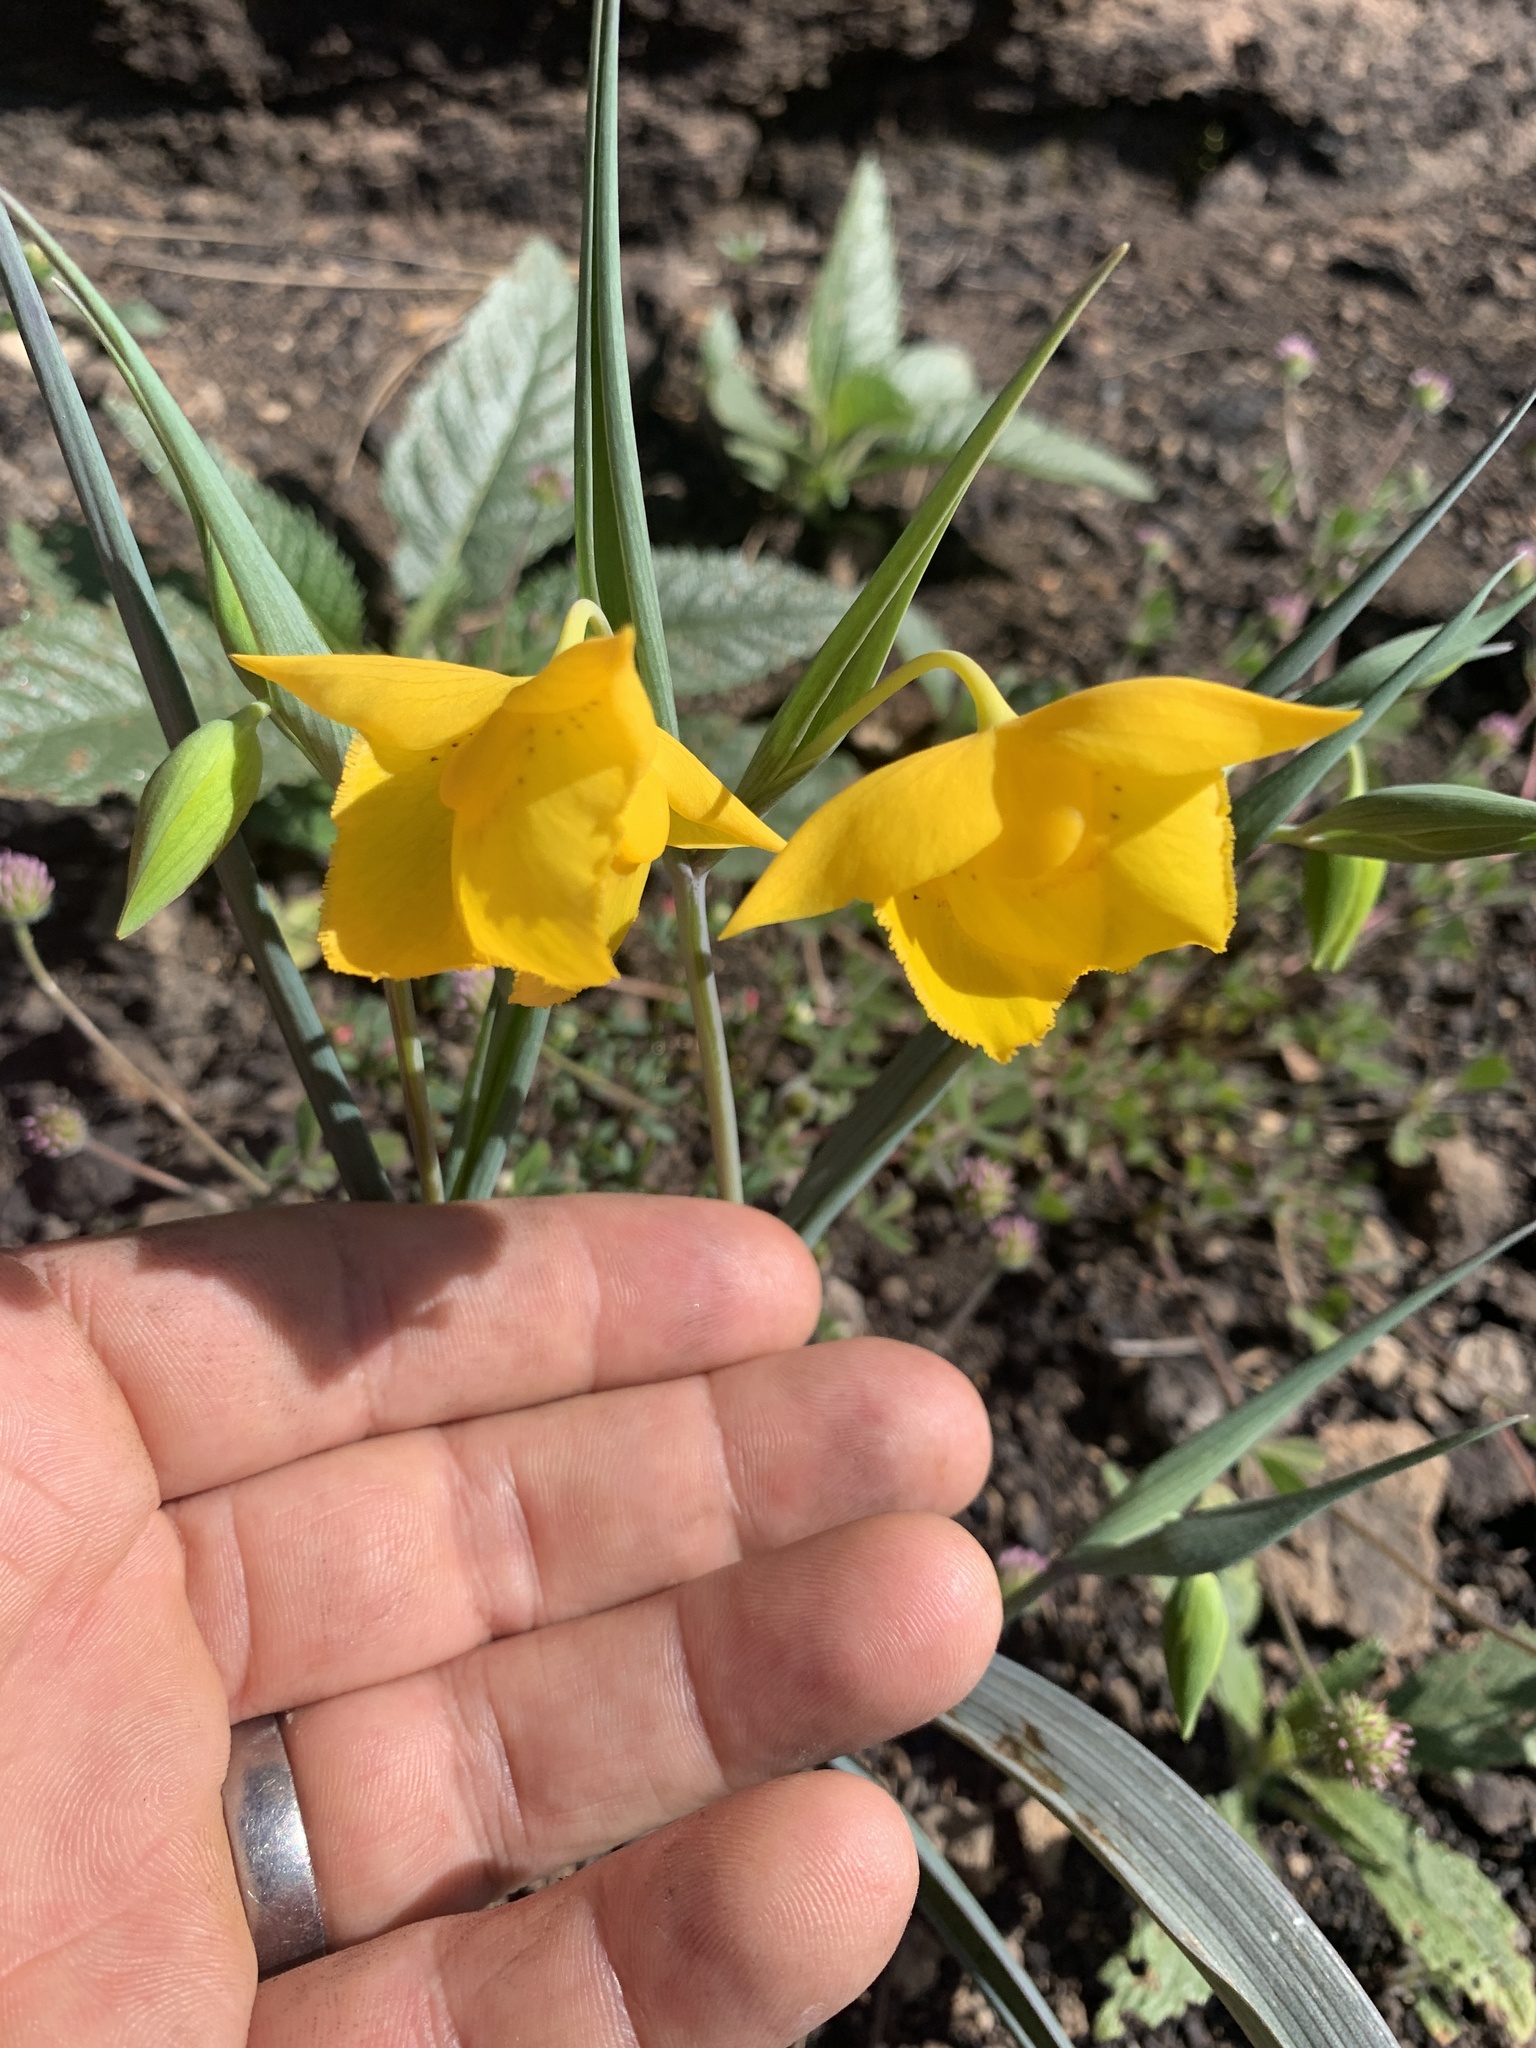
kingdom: Plantae
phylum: Tracheophyta
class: Liliopsida
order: Liliales
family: Liliaceae
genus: Calochortus
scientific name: Calochortus amabilis
